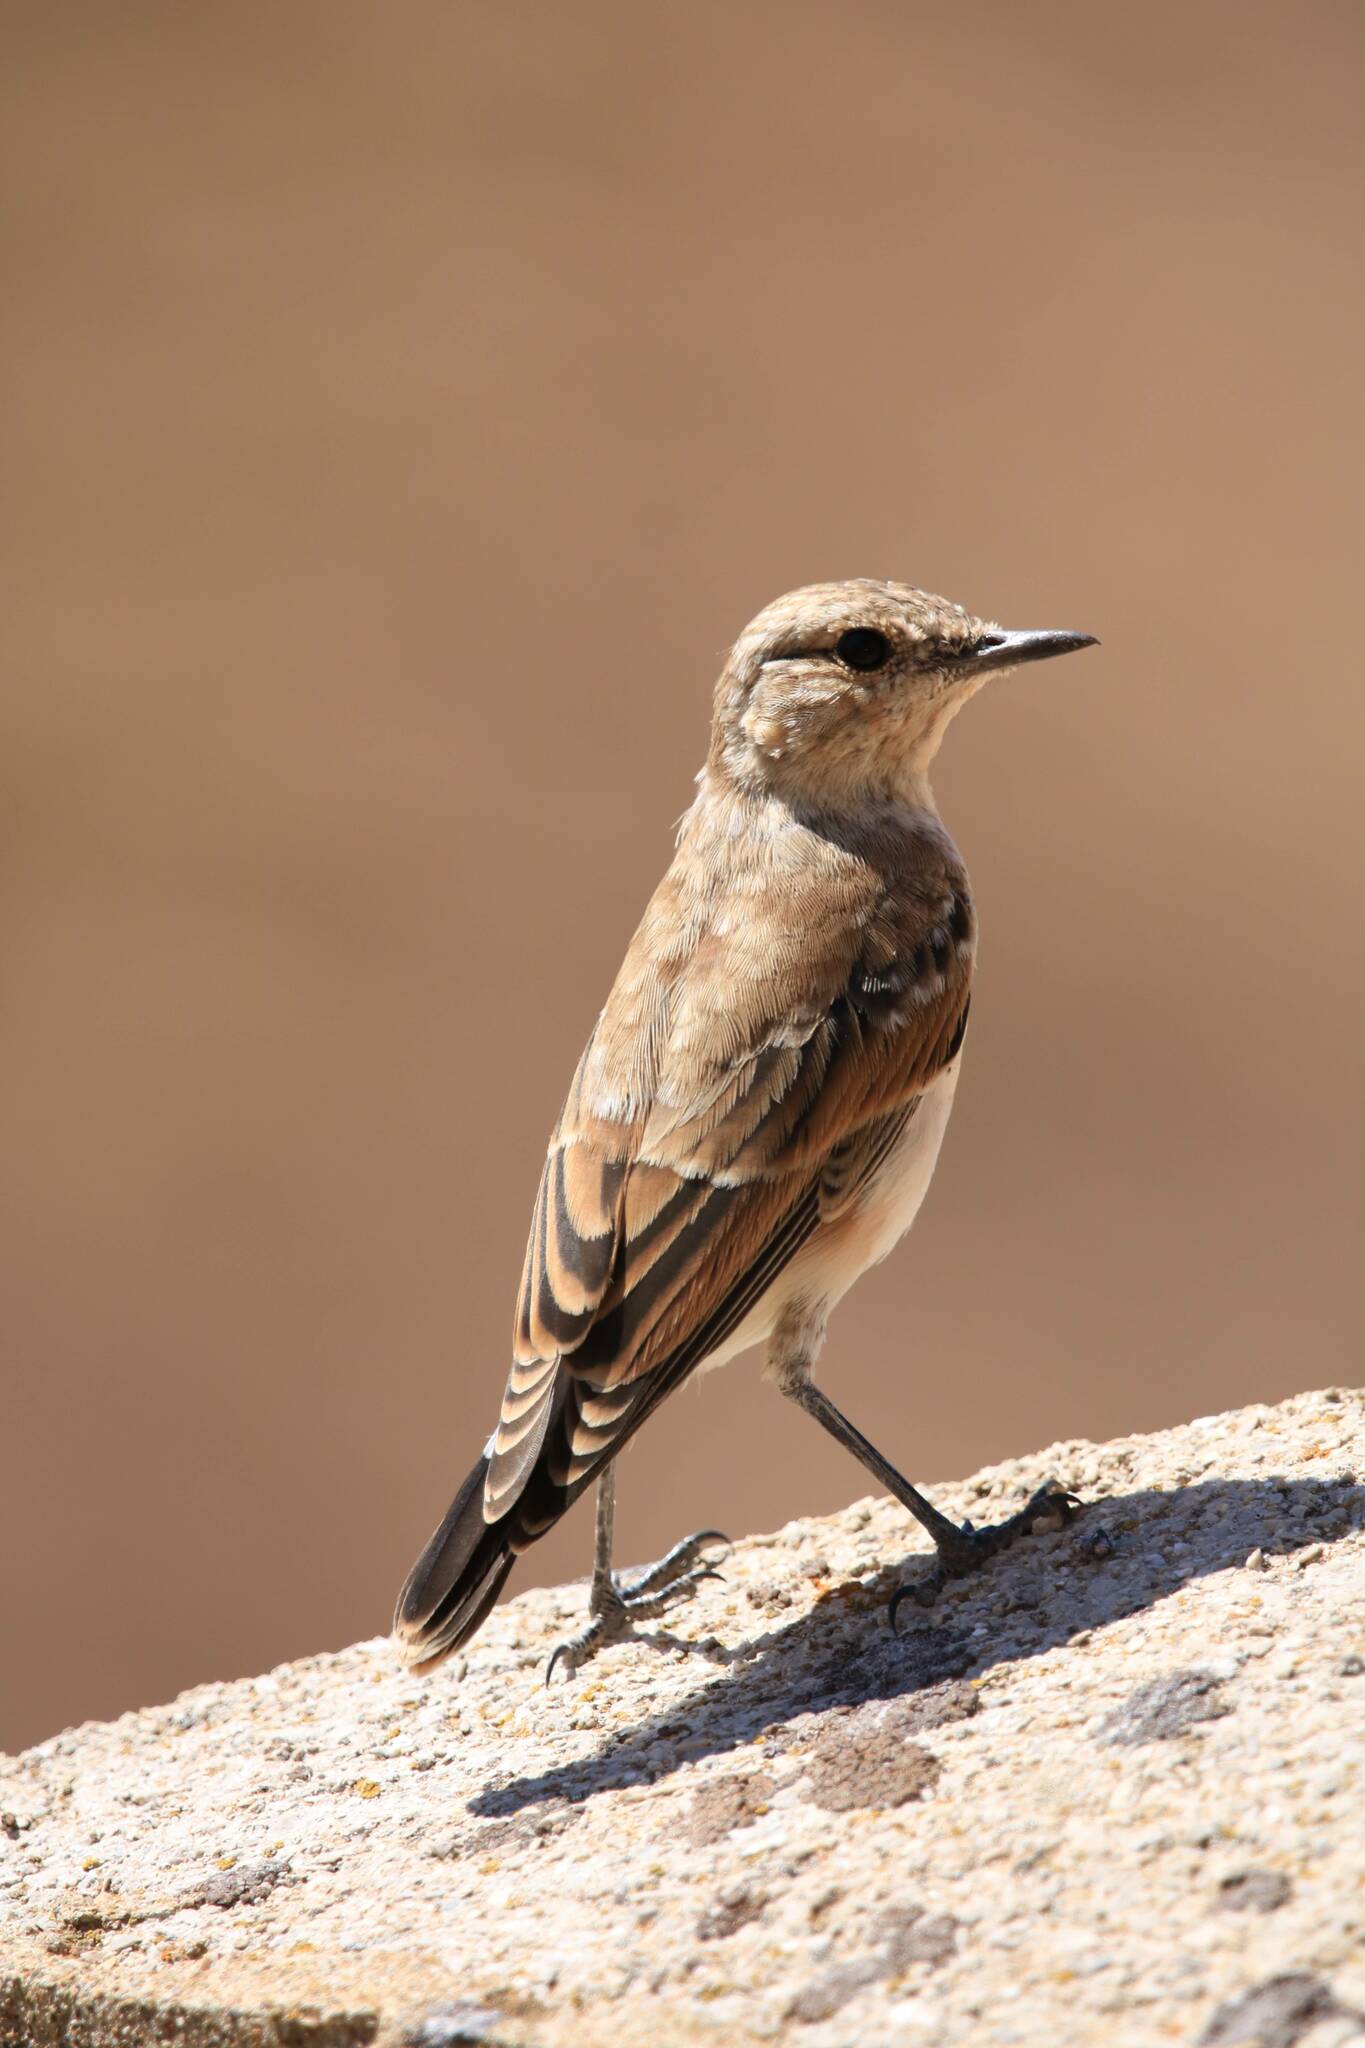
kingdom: Animalia
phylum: Chordata
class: Aves
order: Passeriformes
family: Muscicapidae
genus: Oenanthe
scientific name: Oenanthe oenanthe
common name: Northern wheatear
